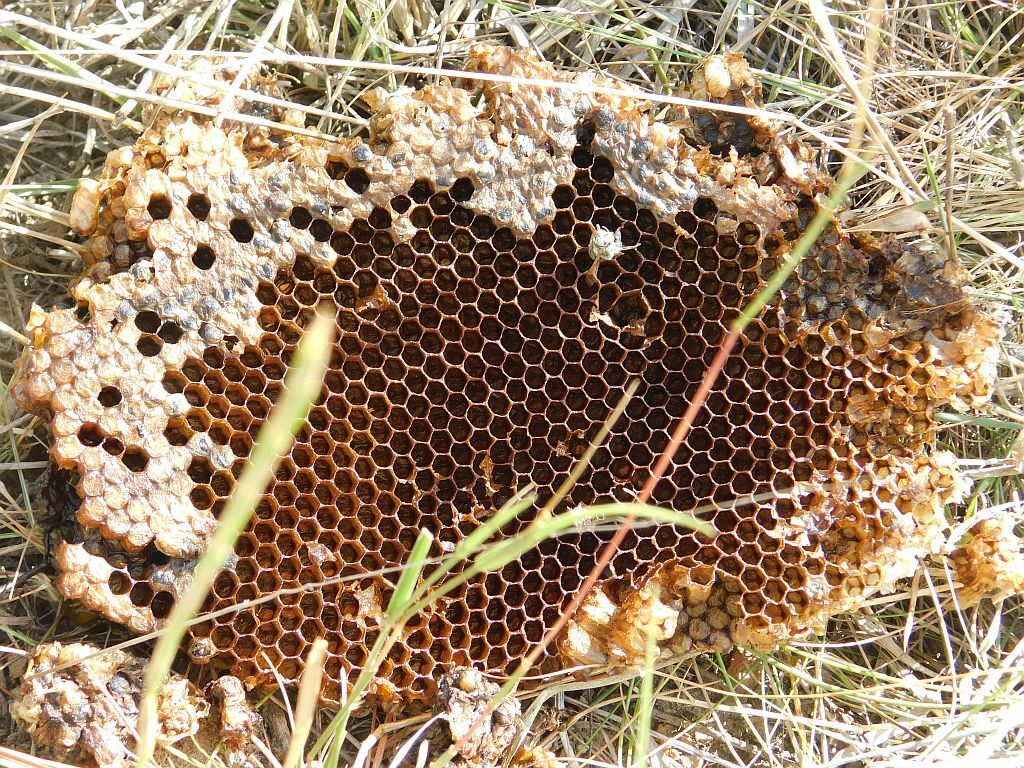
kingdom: Animalia
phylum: Arthropoda
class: Insecta
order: Hymenoptera
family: Apidae
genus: Apis
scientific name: Apis mellifera
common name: Honey bee
